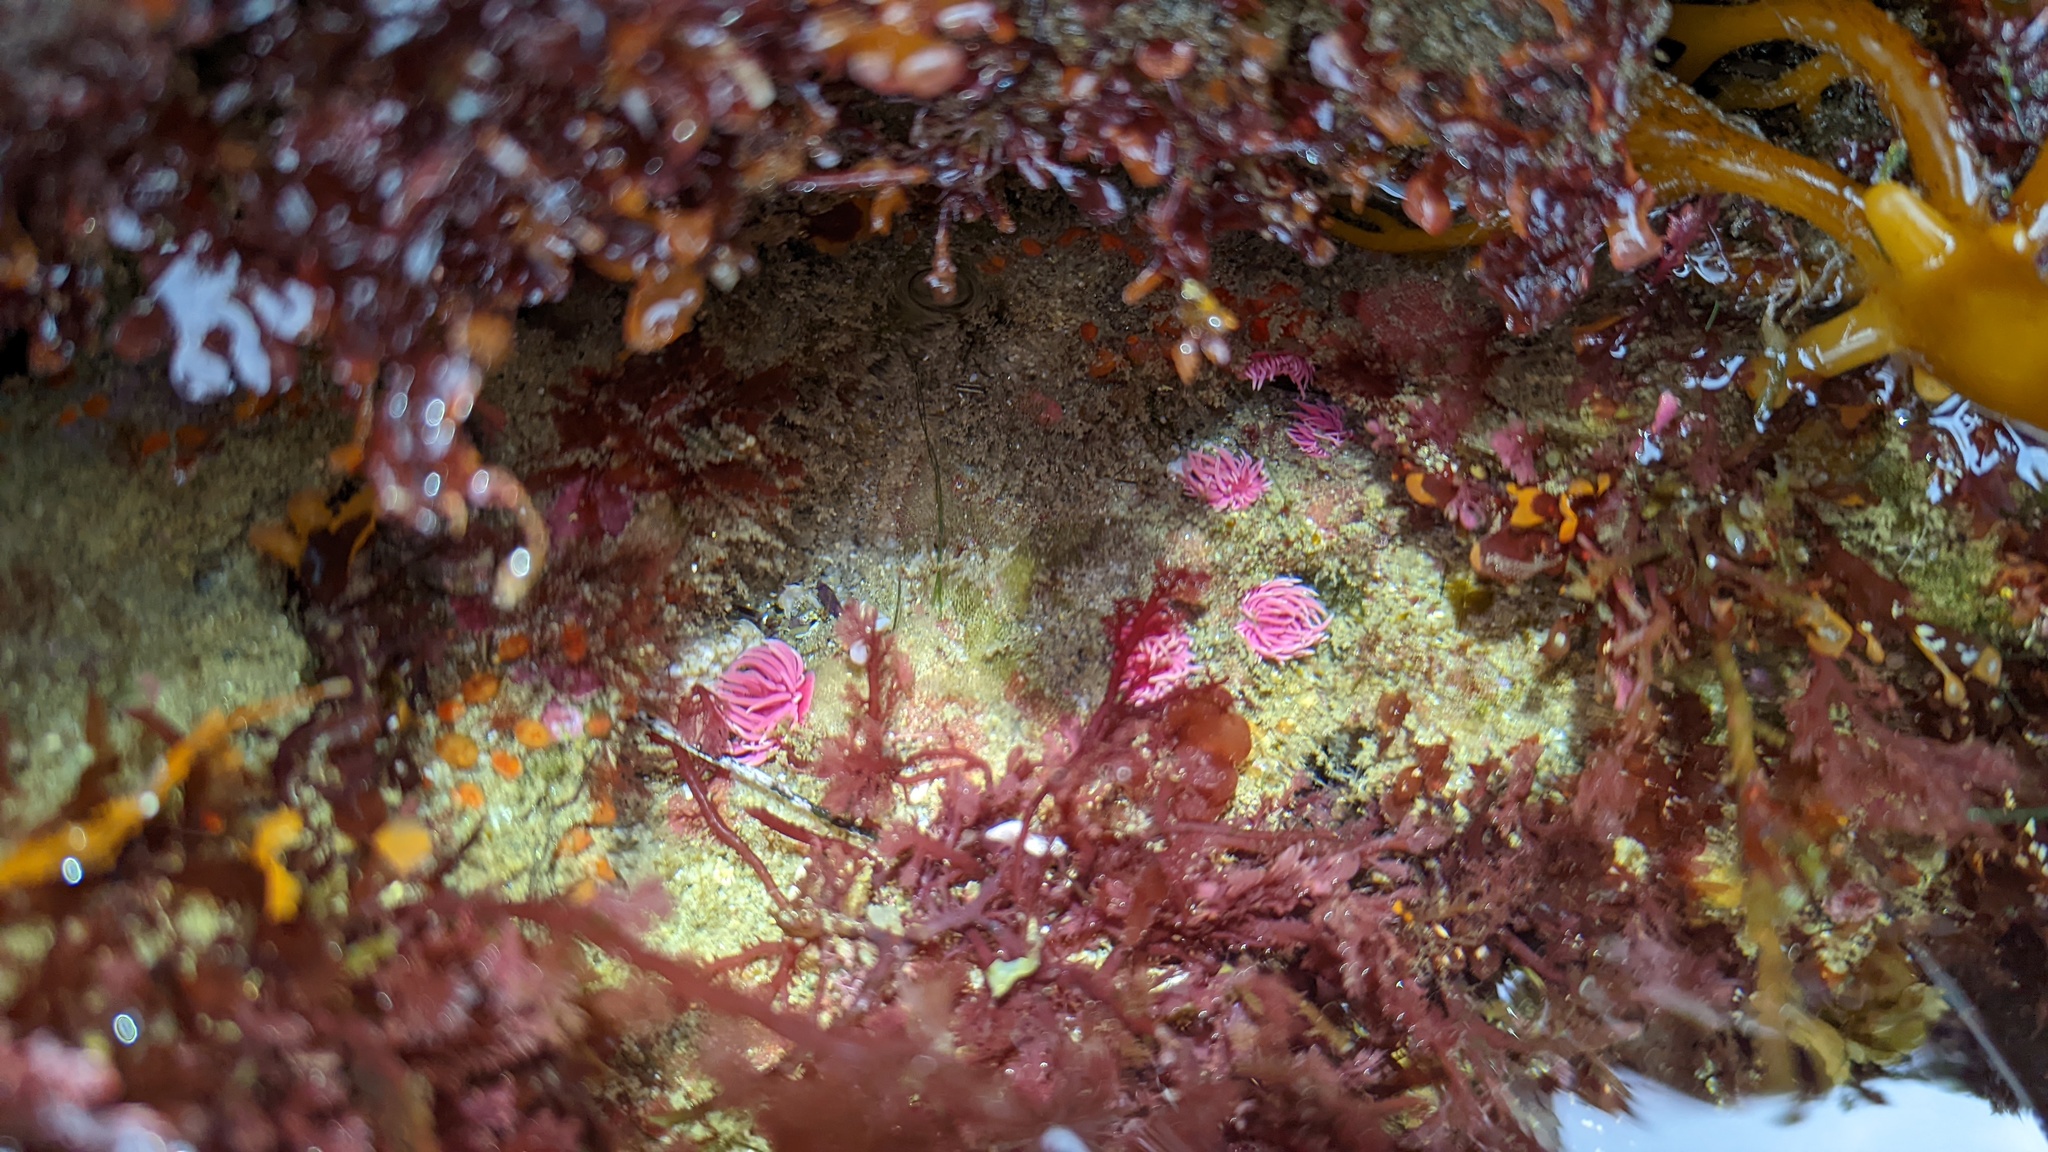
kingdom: Animalia
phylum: Mollusca
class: Gastropoda
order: Nudibranchia
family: Goniodorididae
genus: Okenia
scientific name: Okenia
